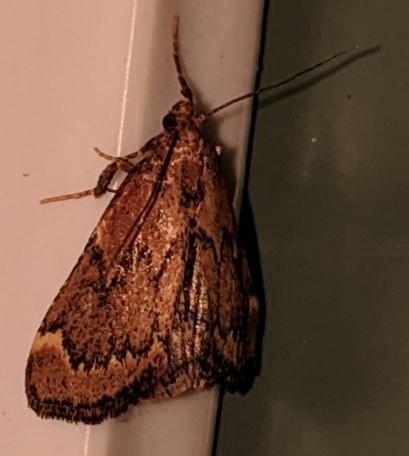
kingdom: Animalia
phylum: Arthropoda
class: Insecta
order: Lepidoptera
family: Pyralidae
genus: Hypsopygia
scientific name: Hypsopygia intermedialis
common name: Red-shawled moth
